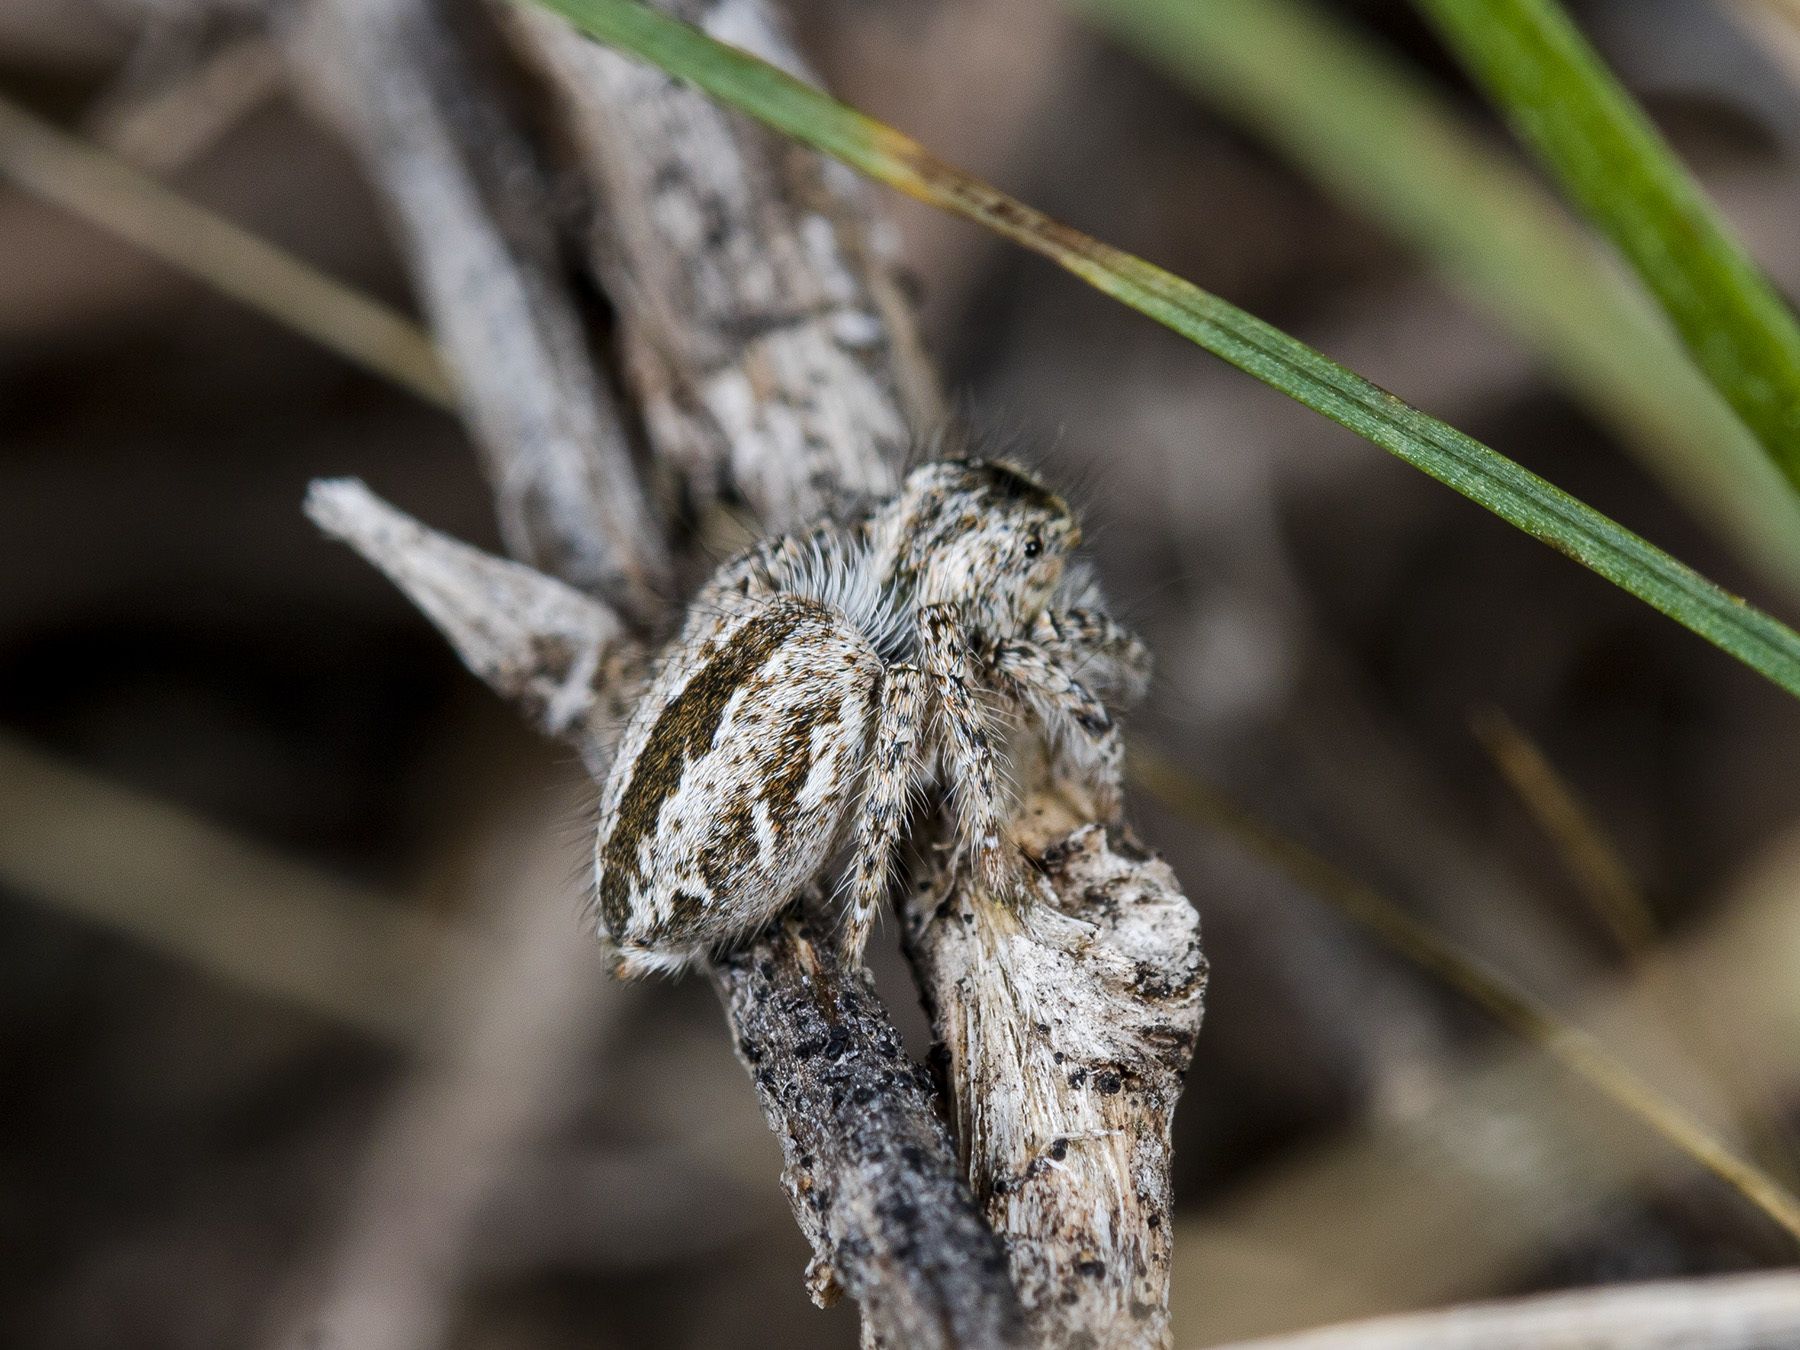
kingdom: Animalia
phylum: Arthropoda
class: Arachnida
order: Araneae
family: Salticidae
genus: Mogrus
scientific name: Mogrus larisae
